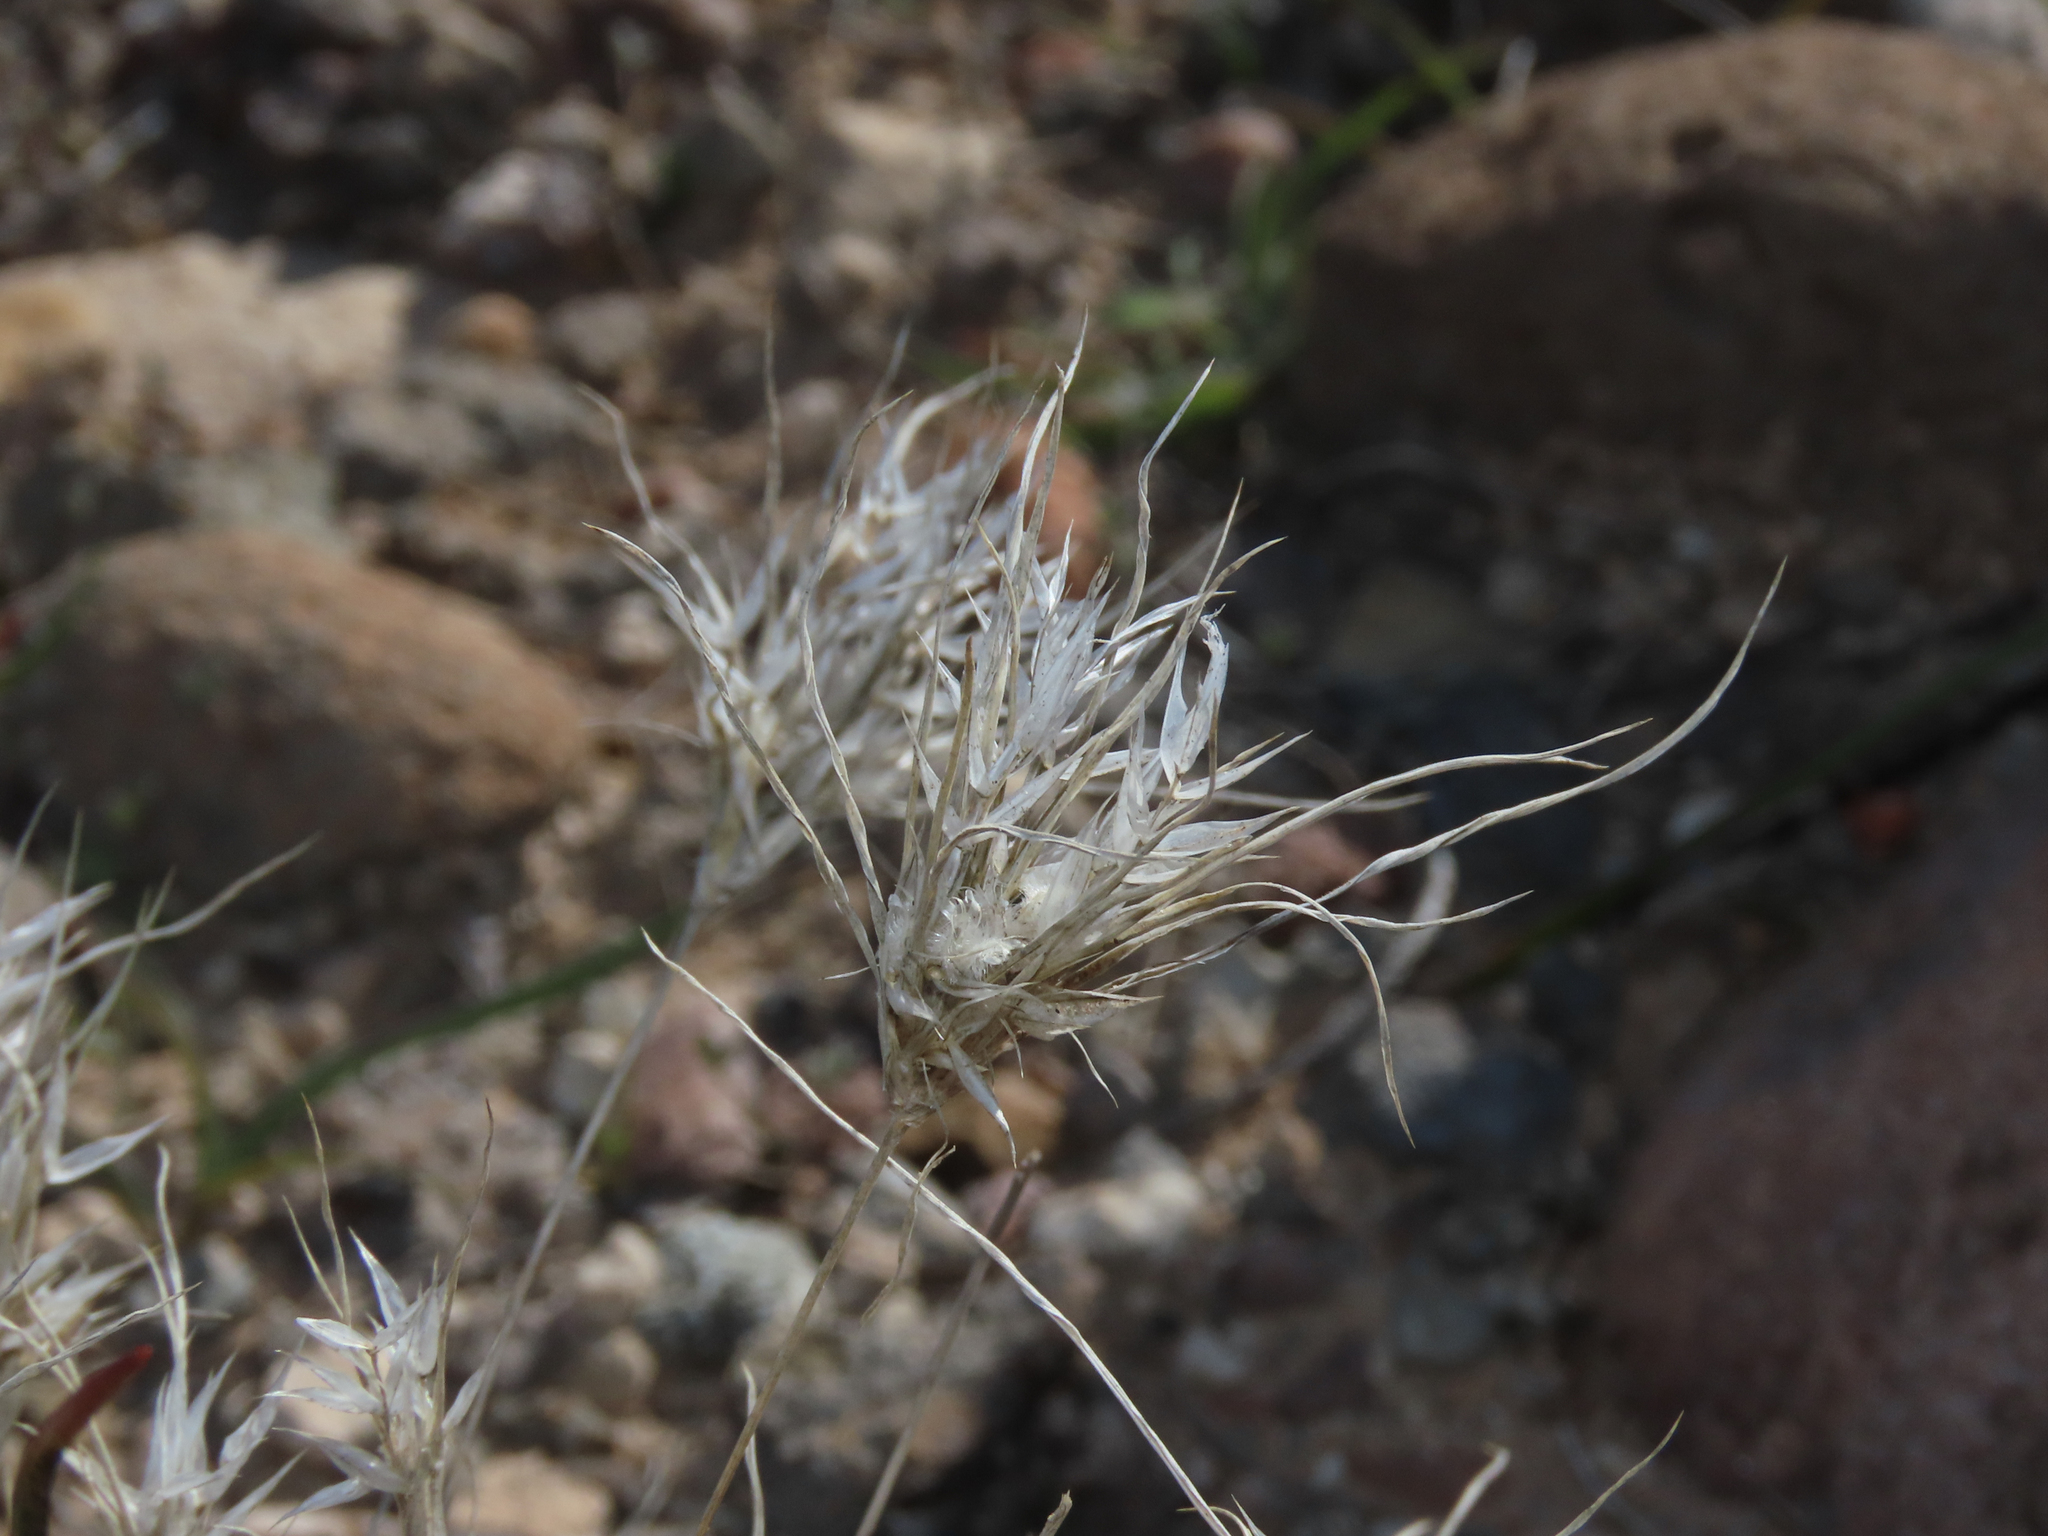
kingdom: Plantae
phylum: Tracheophyta
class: Liliopsida
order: Poales
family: Poaceae
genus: Dasyochloa
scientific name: Dasyochloa pulchella
